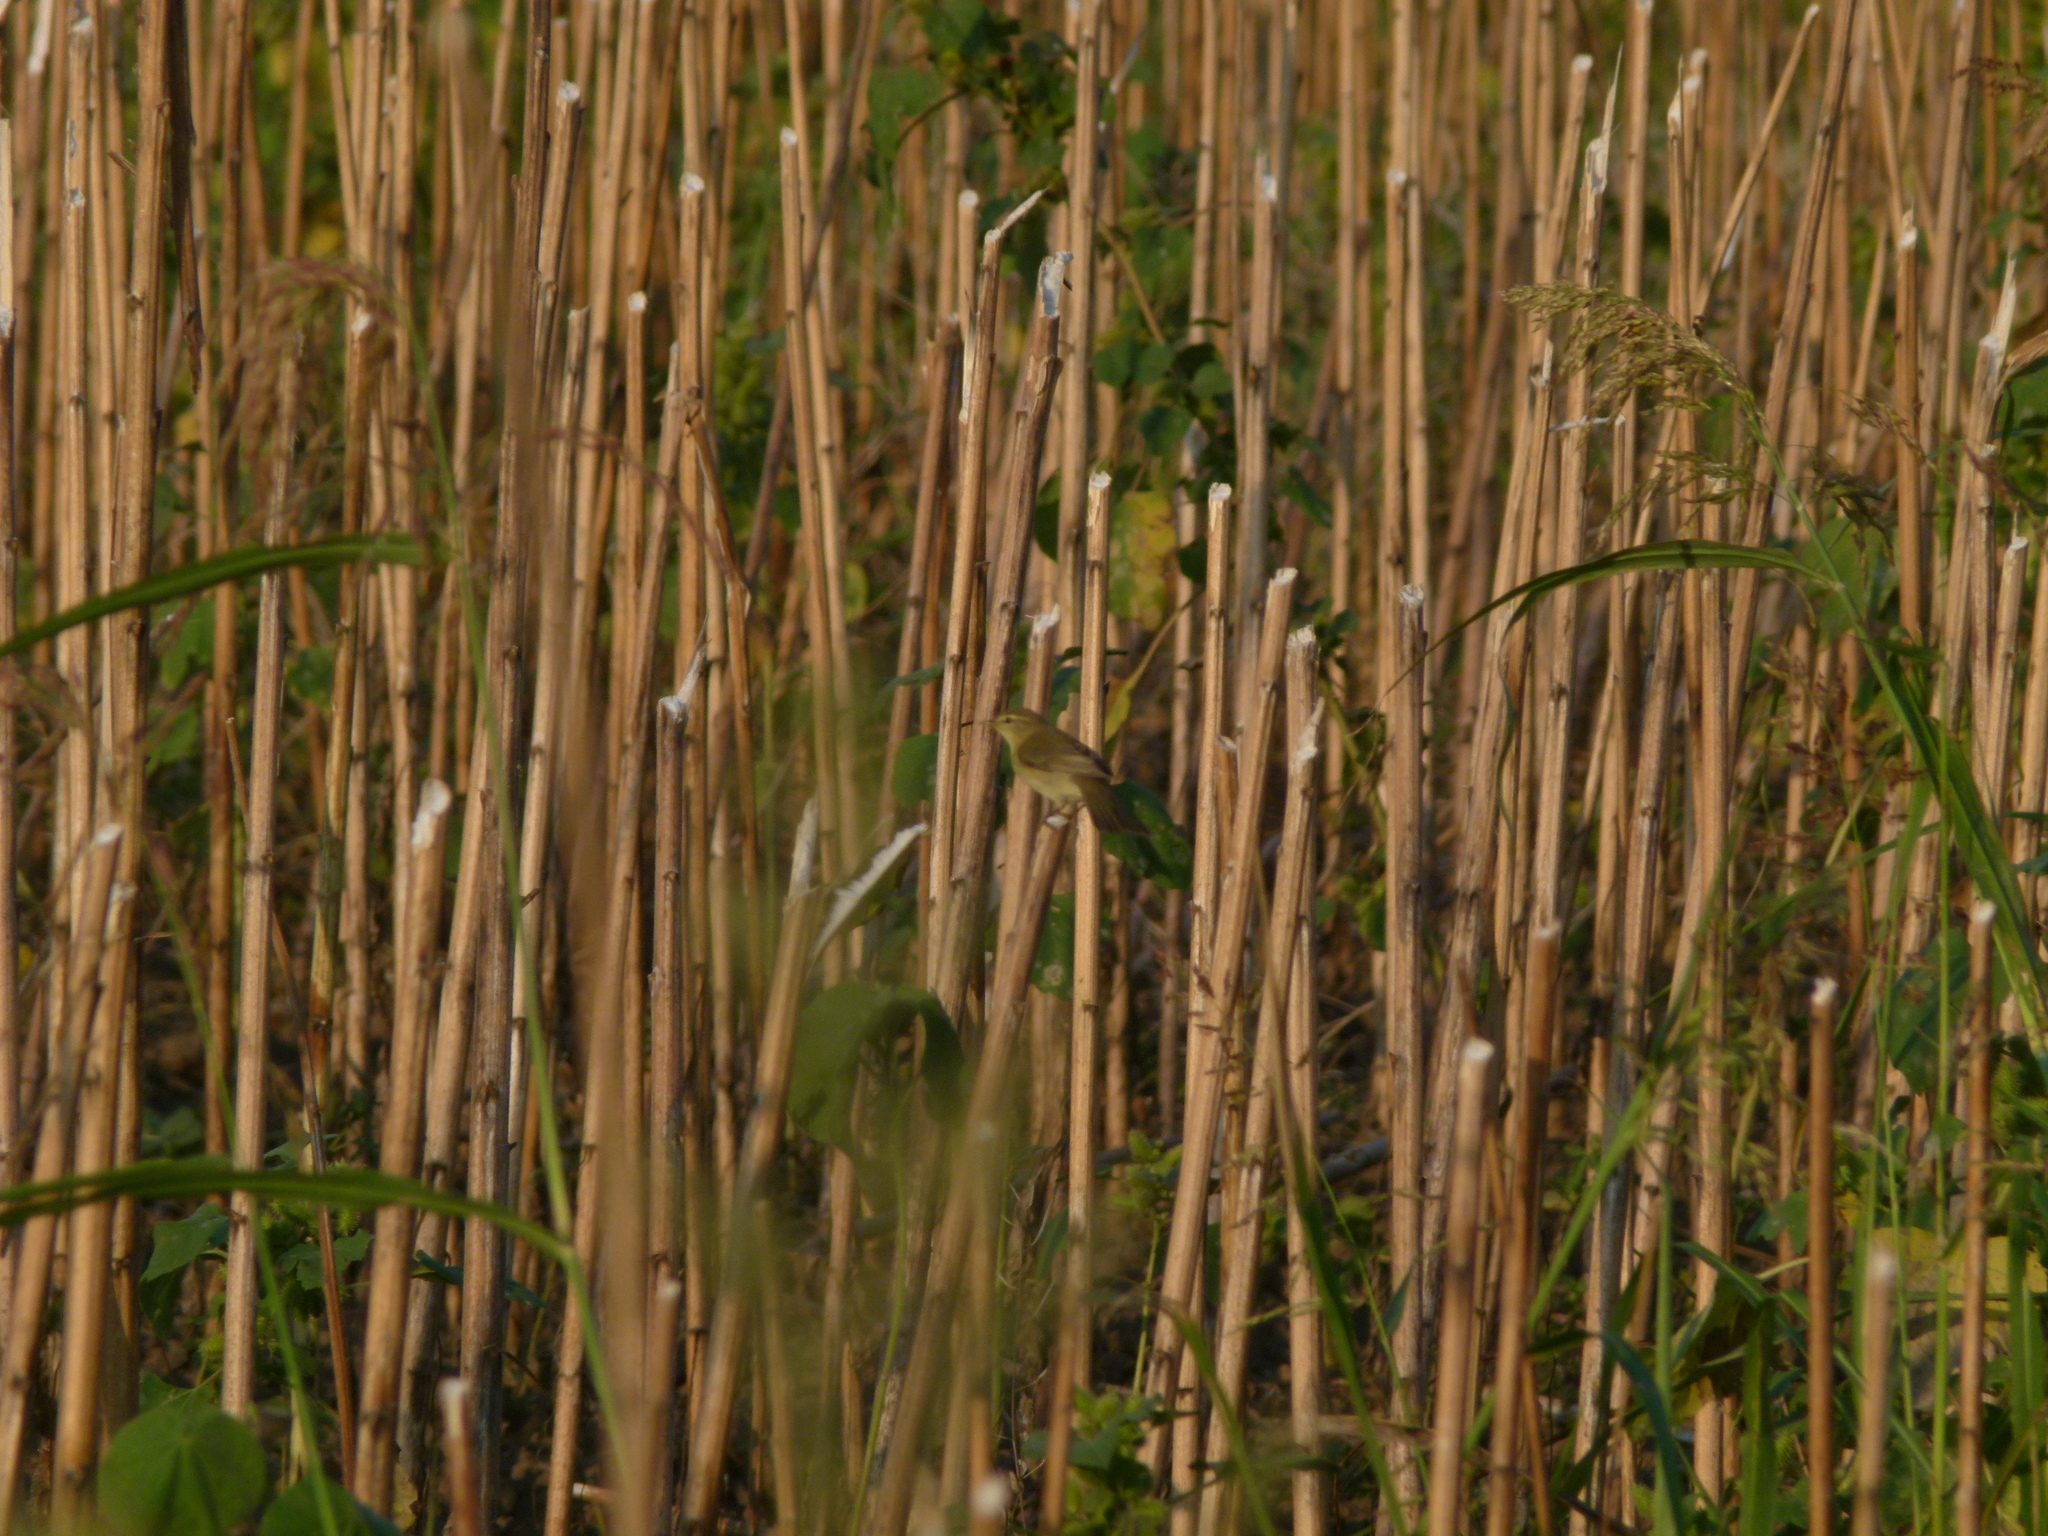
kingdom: Animalia
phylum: Chordata
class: Aves
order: Passeriformes
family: Phylloscopidae
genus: Phylloscopus
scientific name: Phylloscopus trochilus
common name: Willow warbler
